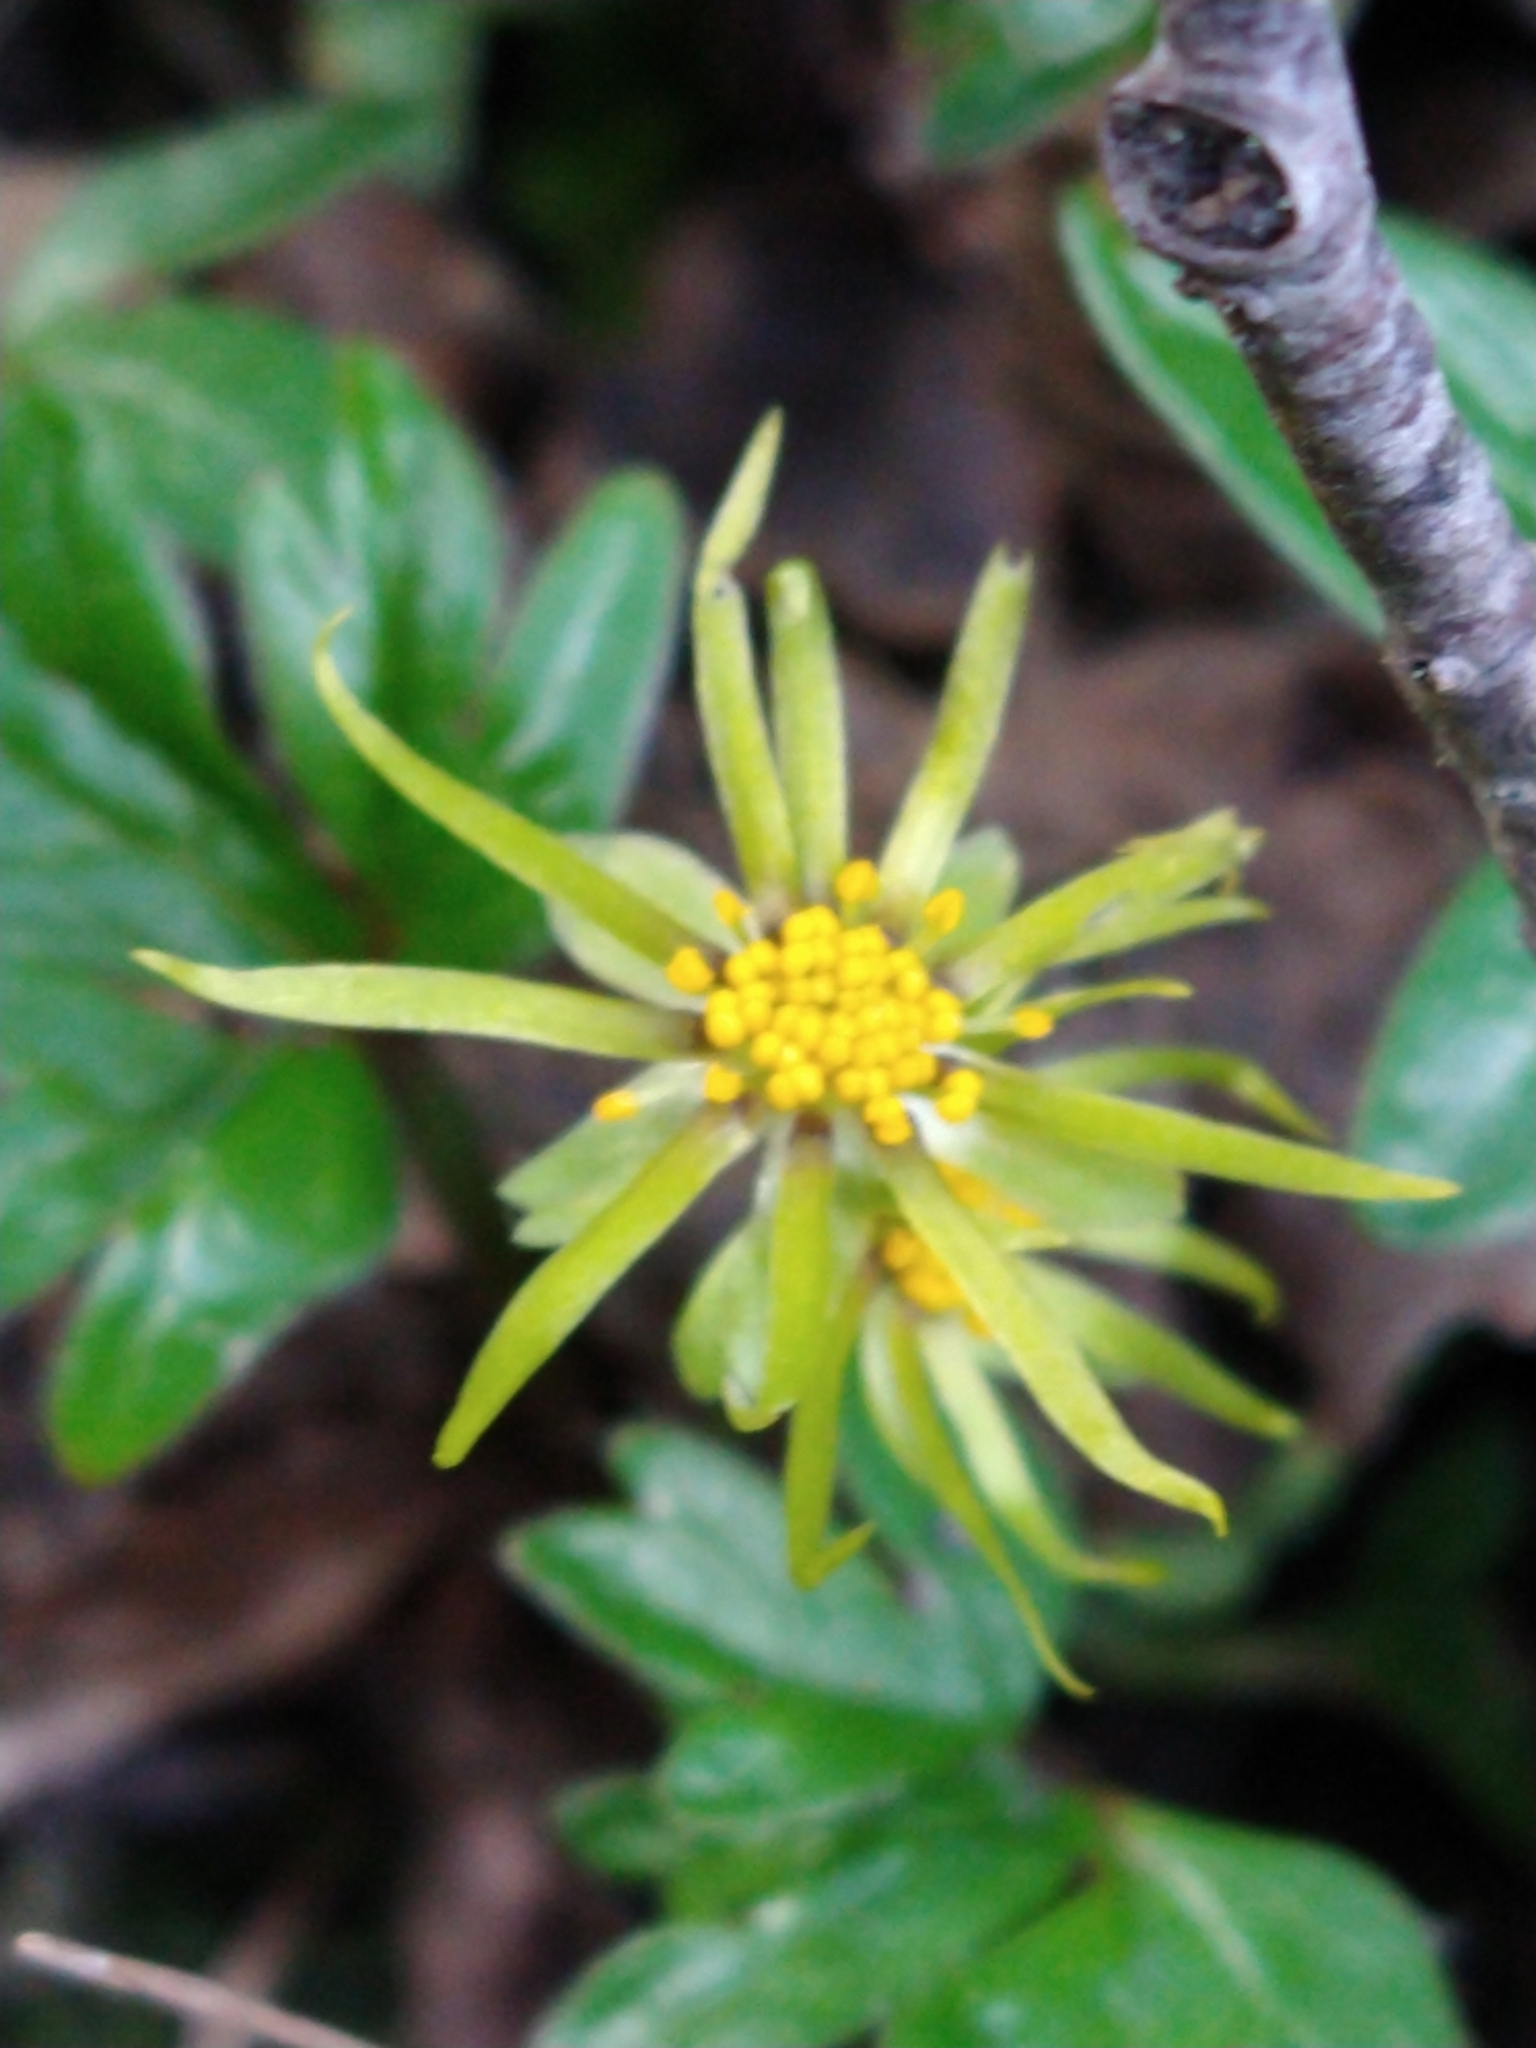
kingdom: Plantae
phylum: Tracheophyta
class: Magnoliopsida
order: Ranunculales
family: Ranunculaceae
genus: Hamadryas
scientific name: Hamadryas magellanica
